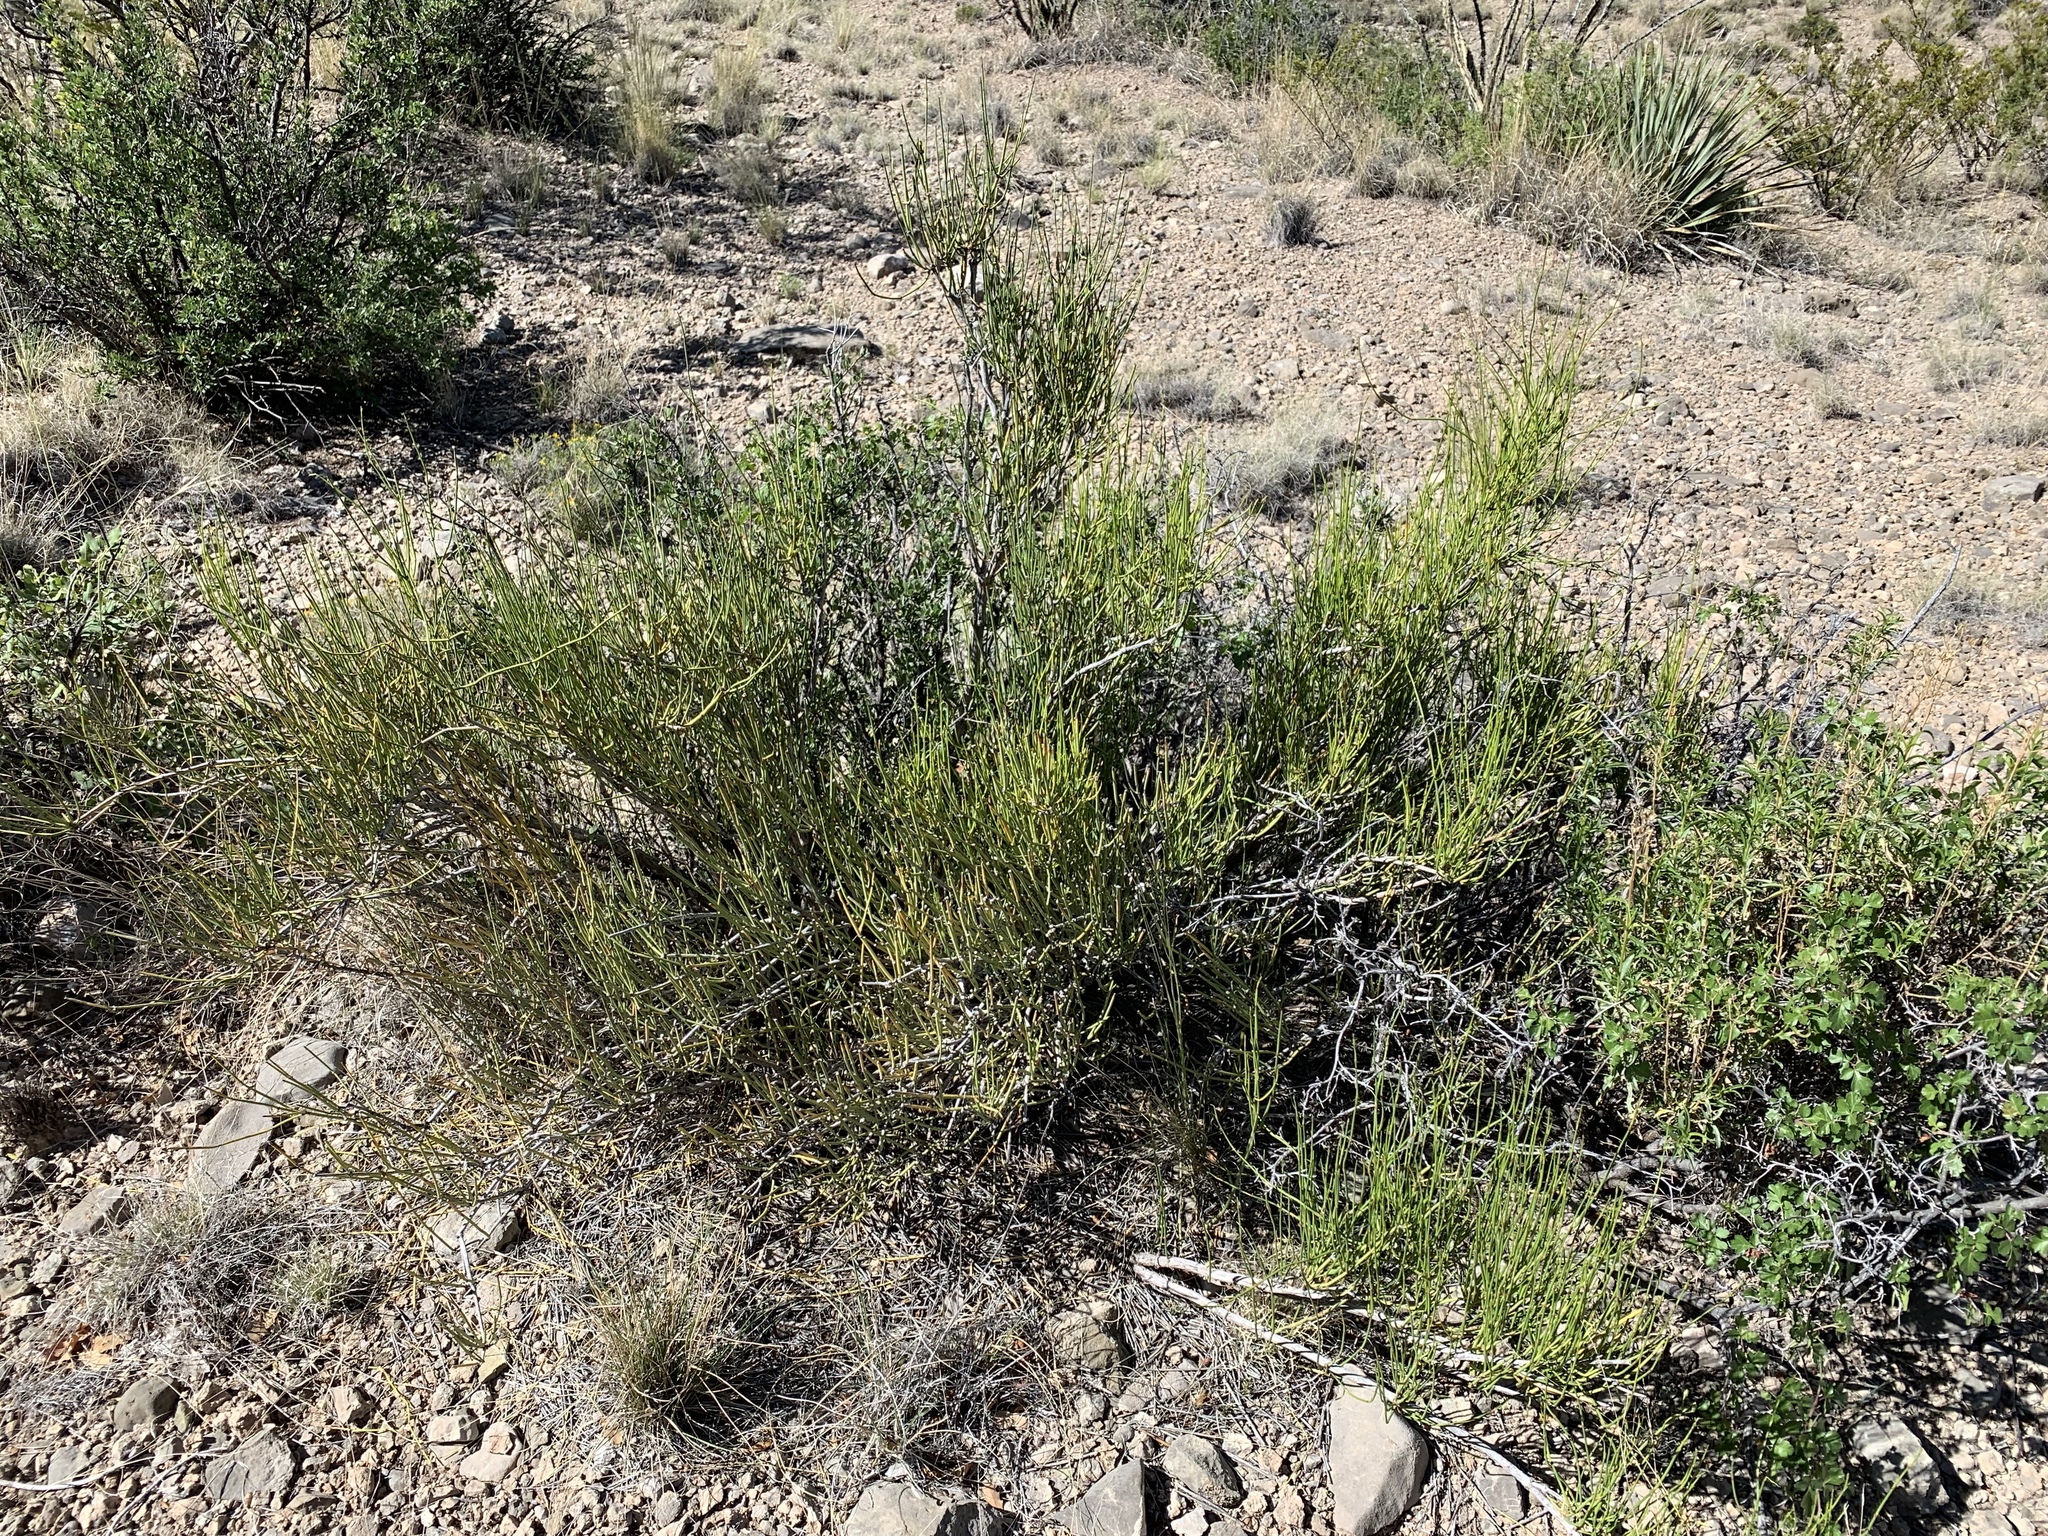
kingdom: Plantae
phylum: Tracheophyta
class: Gnetopsida
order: Ephedrales
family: Ephedraceae
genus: Ephedra
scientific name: Ephedra trifurca
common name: Mexican-tea
